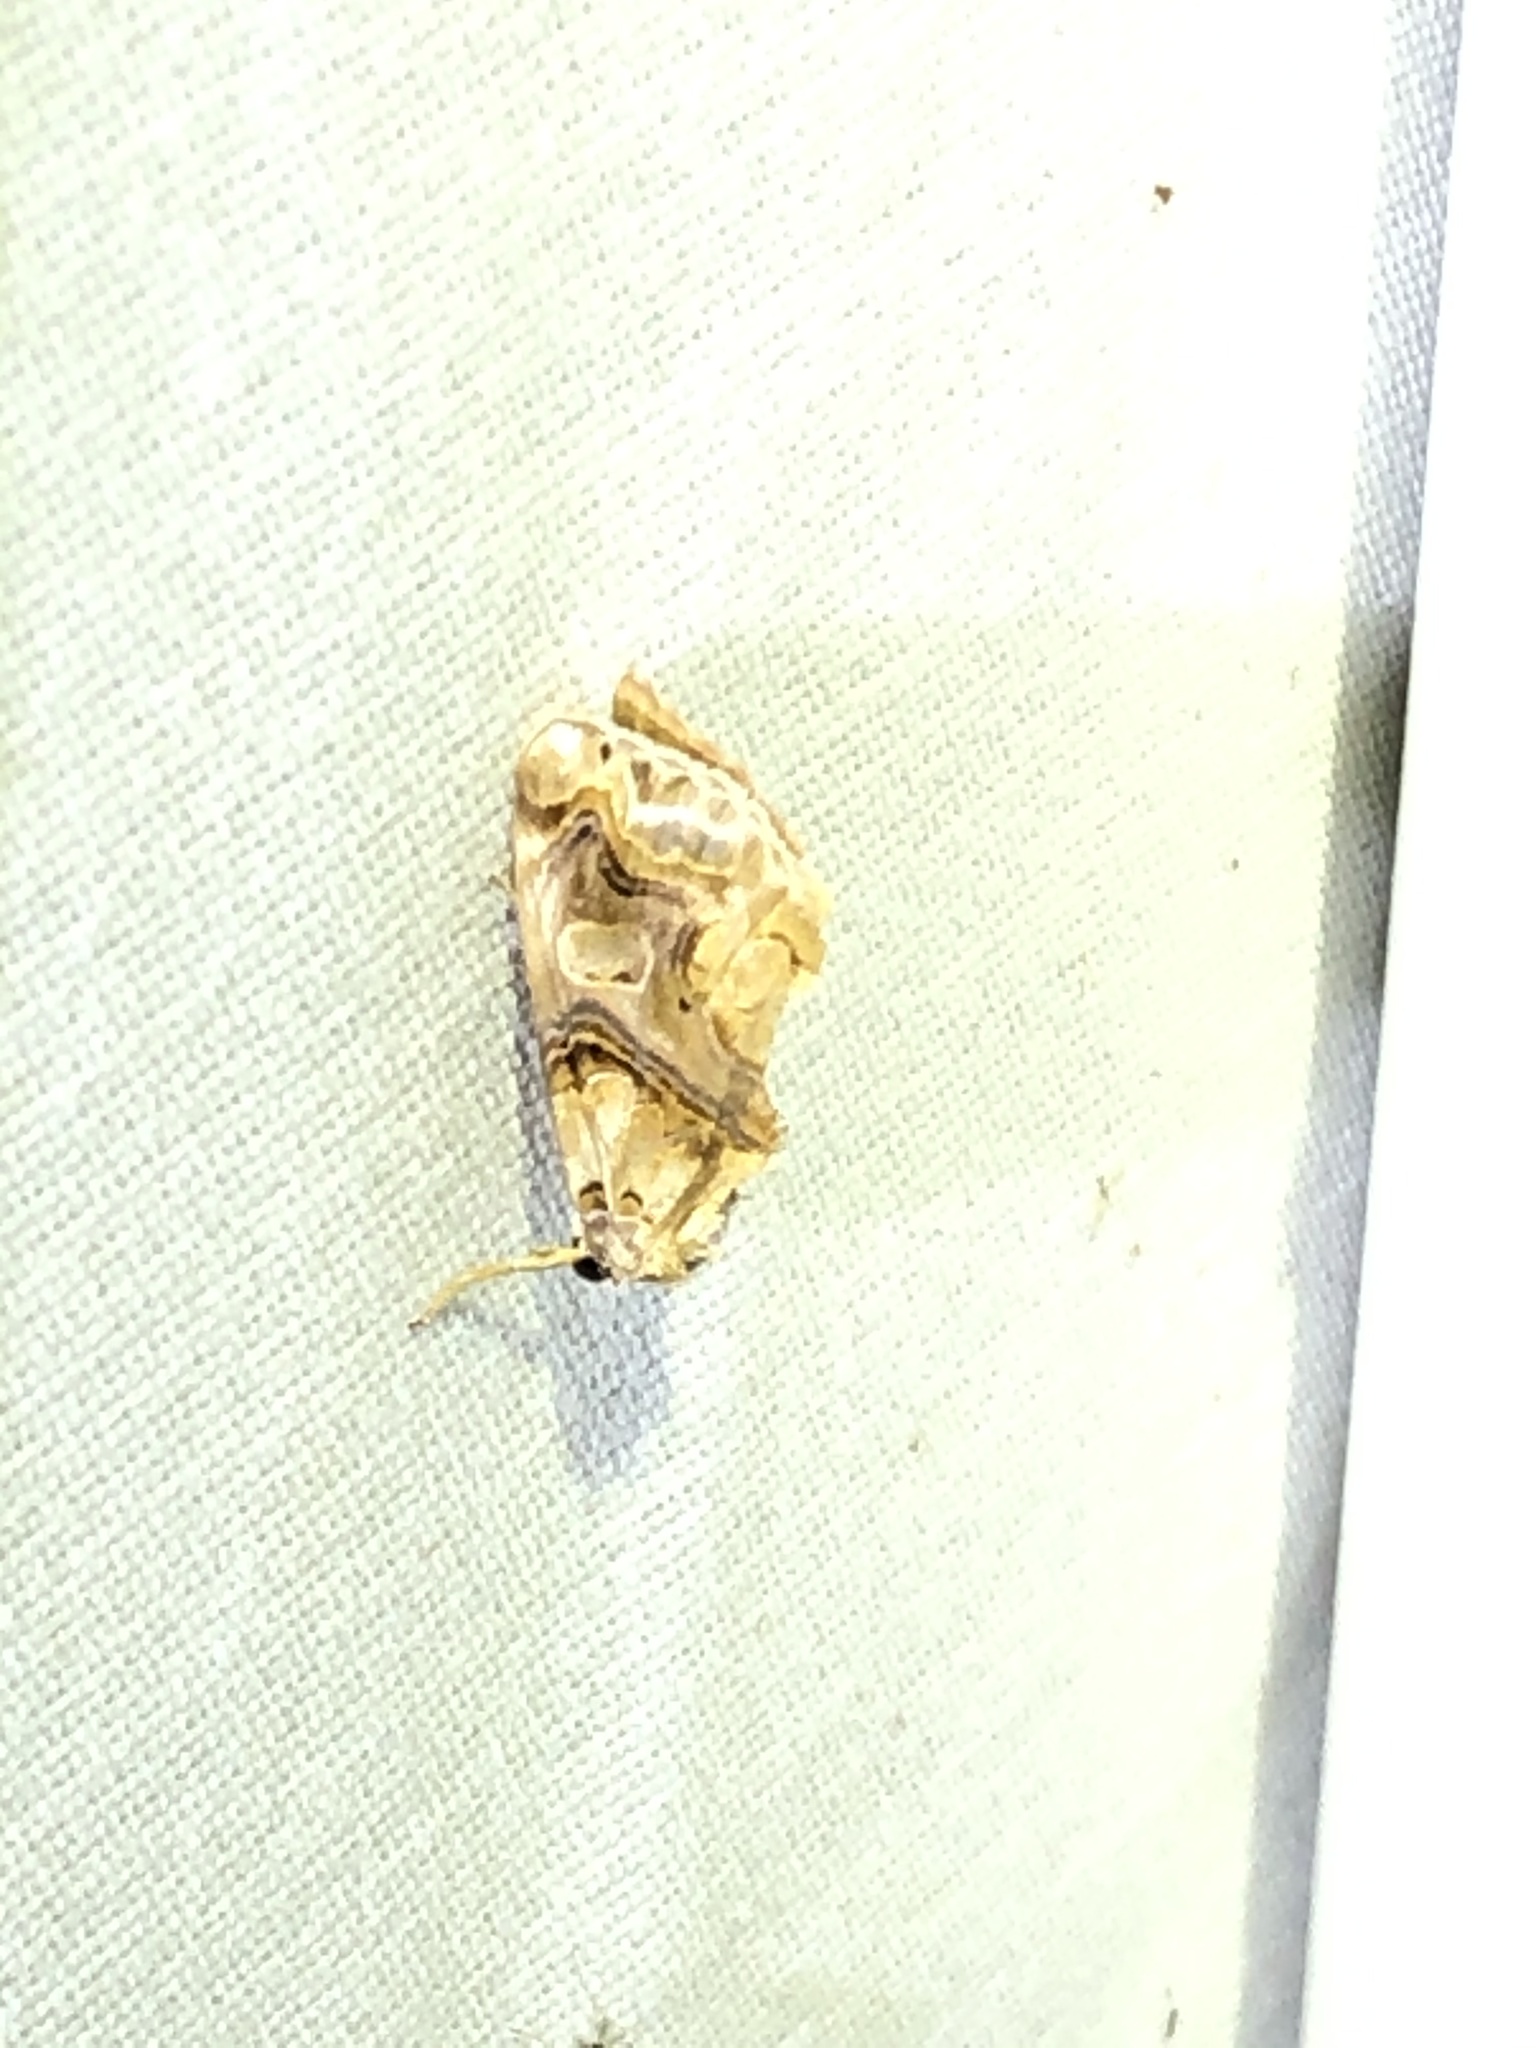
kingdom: Animalia
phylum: Arthropoda
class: Insecta
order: Lepidoptera
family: Erebidae
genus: Plusiodonta
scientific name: Plusiodonta compressipalpis
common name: Moonseed moth
